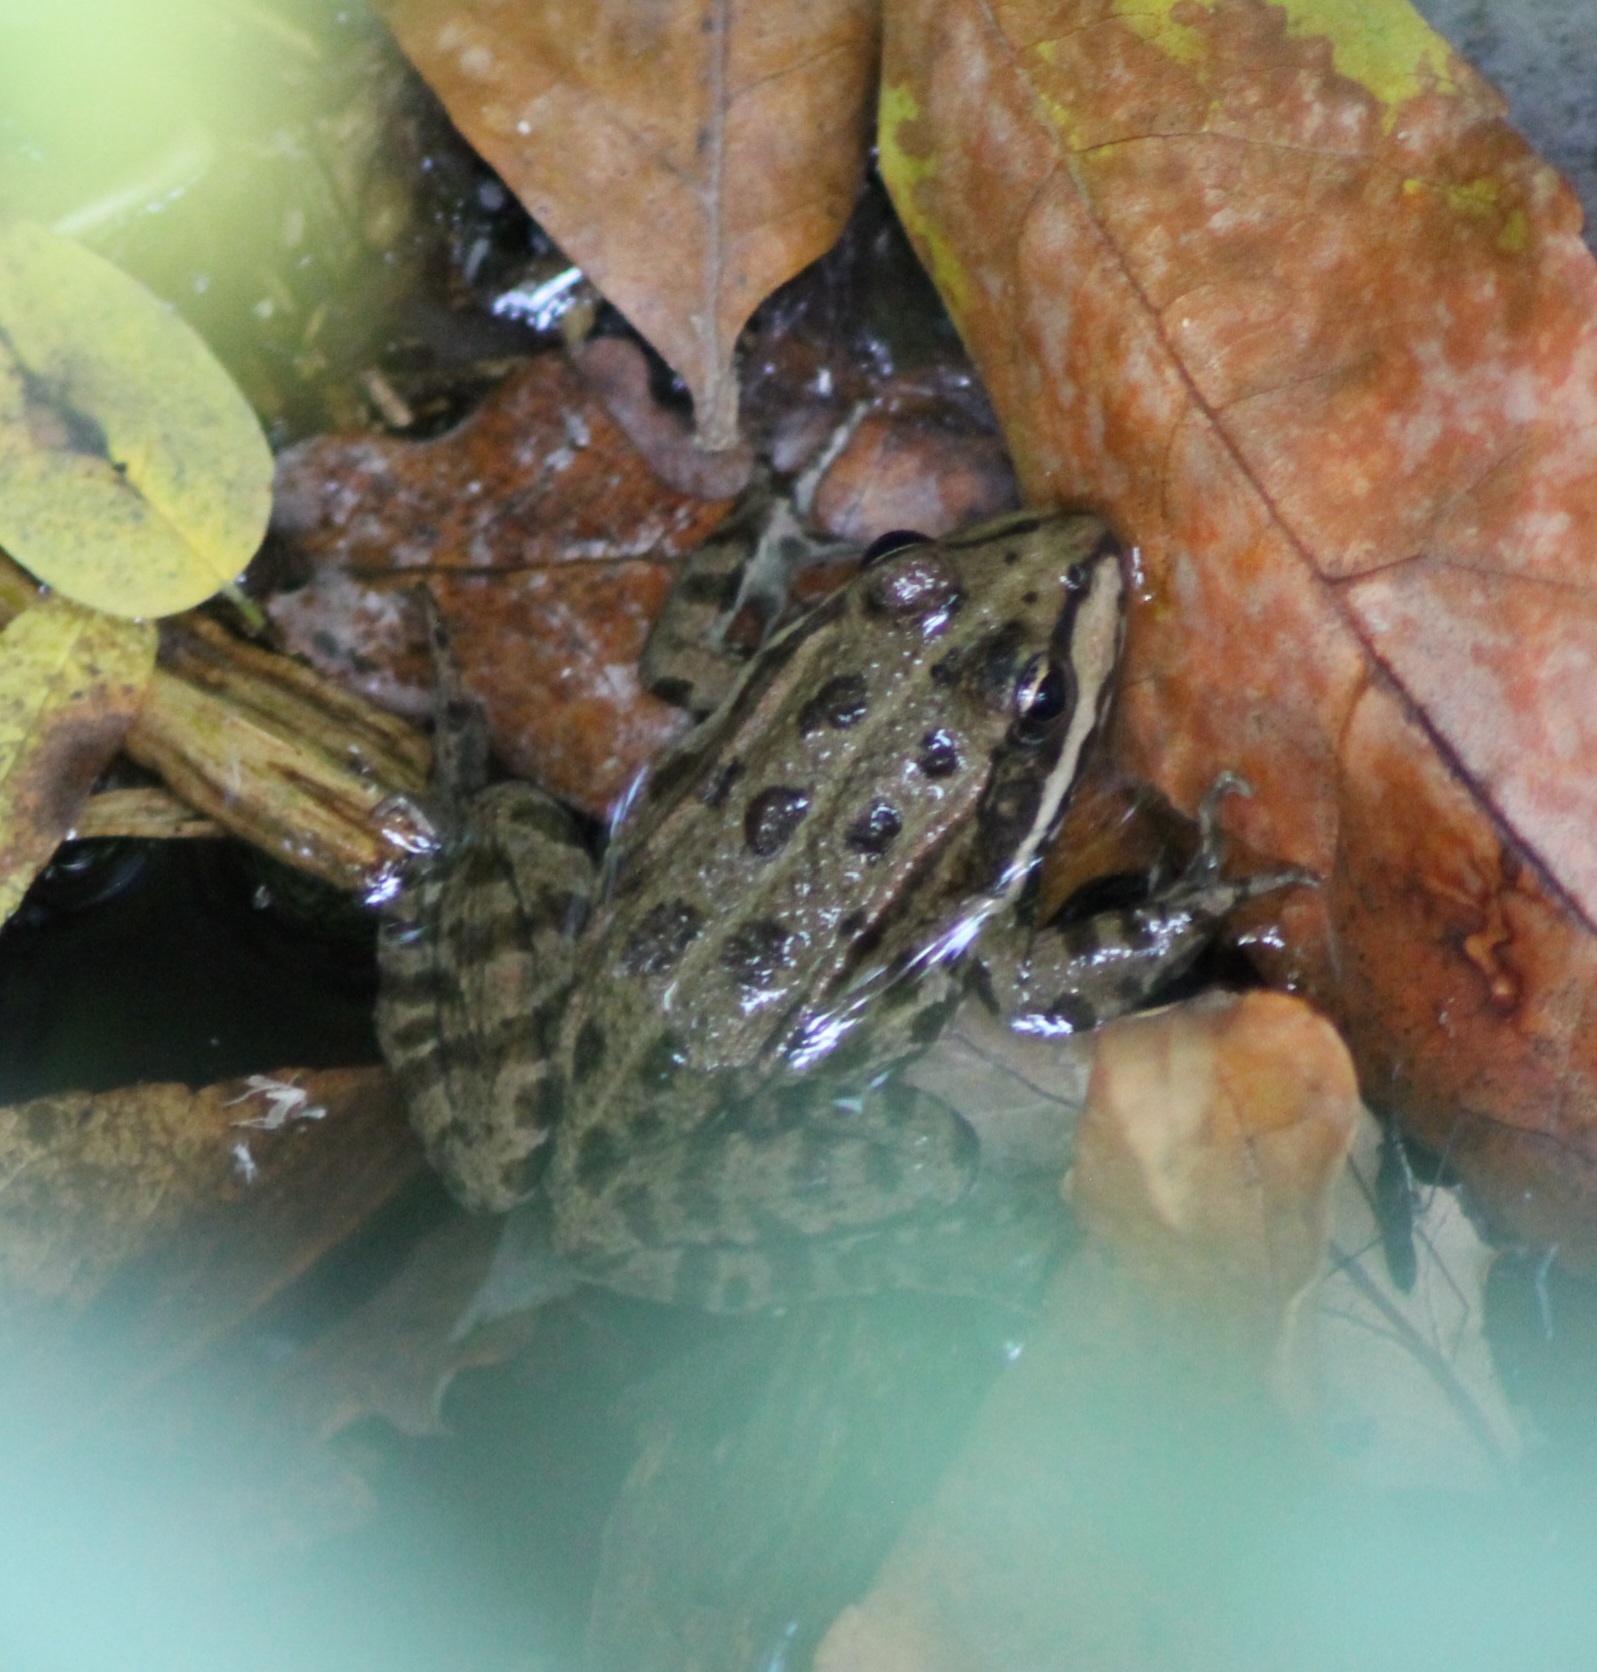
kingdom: Animalia
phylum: Chordata
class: Amphibia
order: Anura
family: Ranidae
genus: Pelophylax
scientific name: Pelophylax
